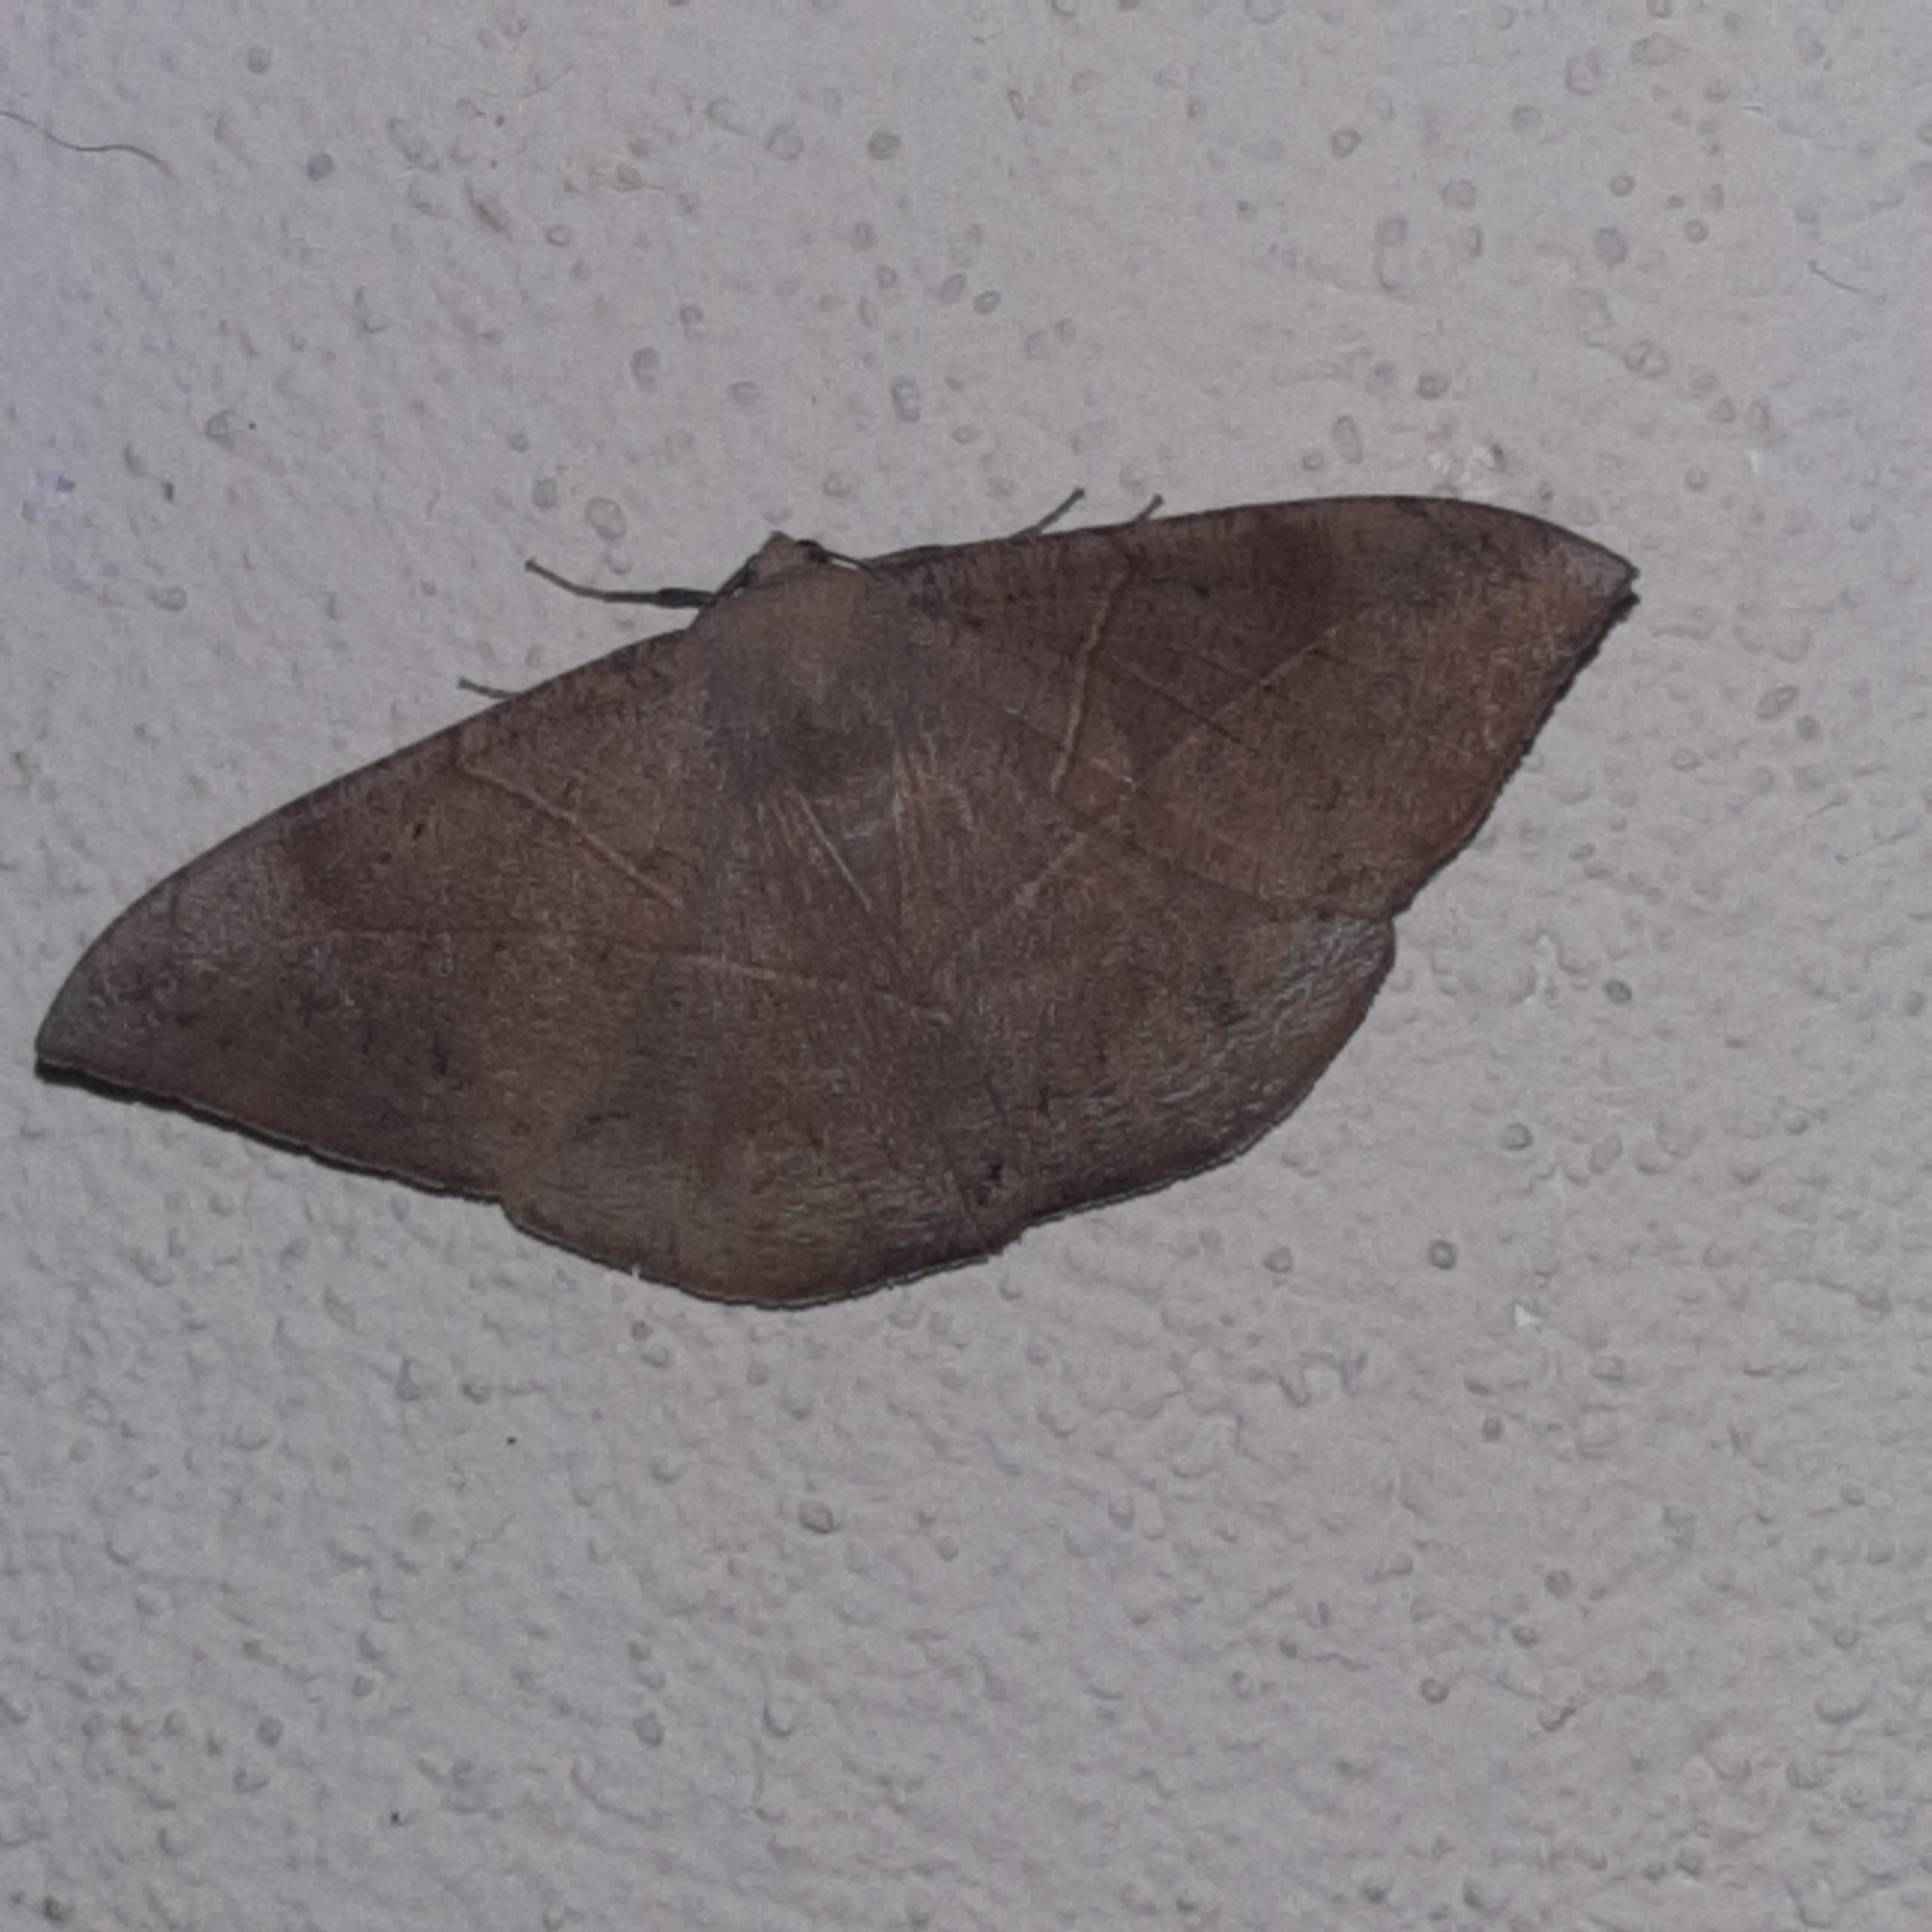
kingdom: Animalia
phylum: Arthropoda
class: Insecta
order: Lepidoptera
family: Geometridae
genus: Oxydia
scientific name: Oxydia trychiata
